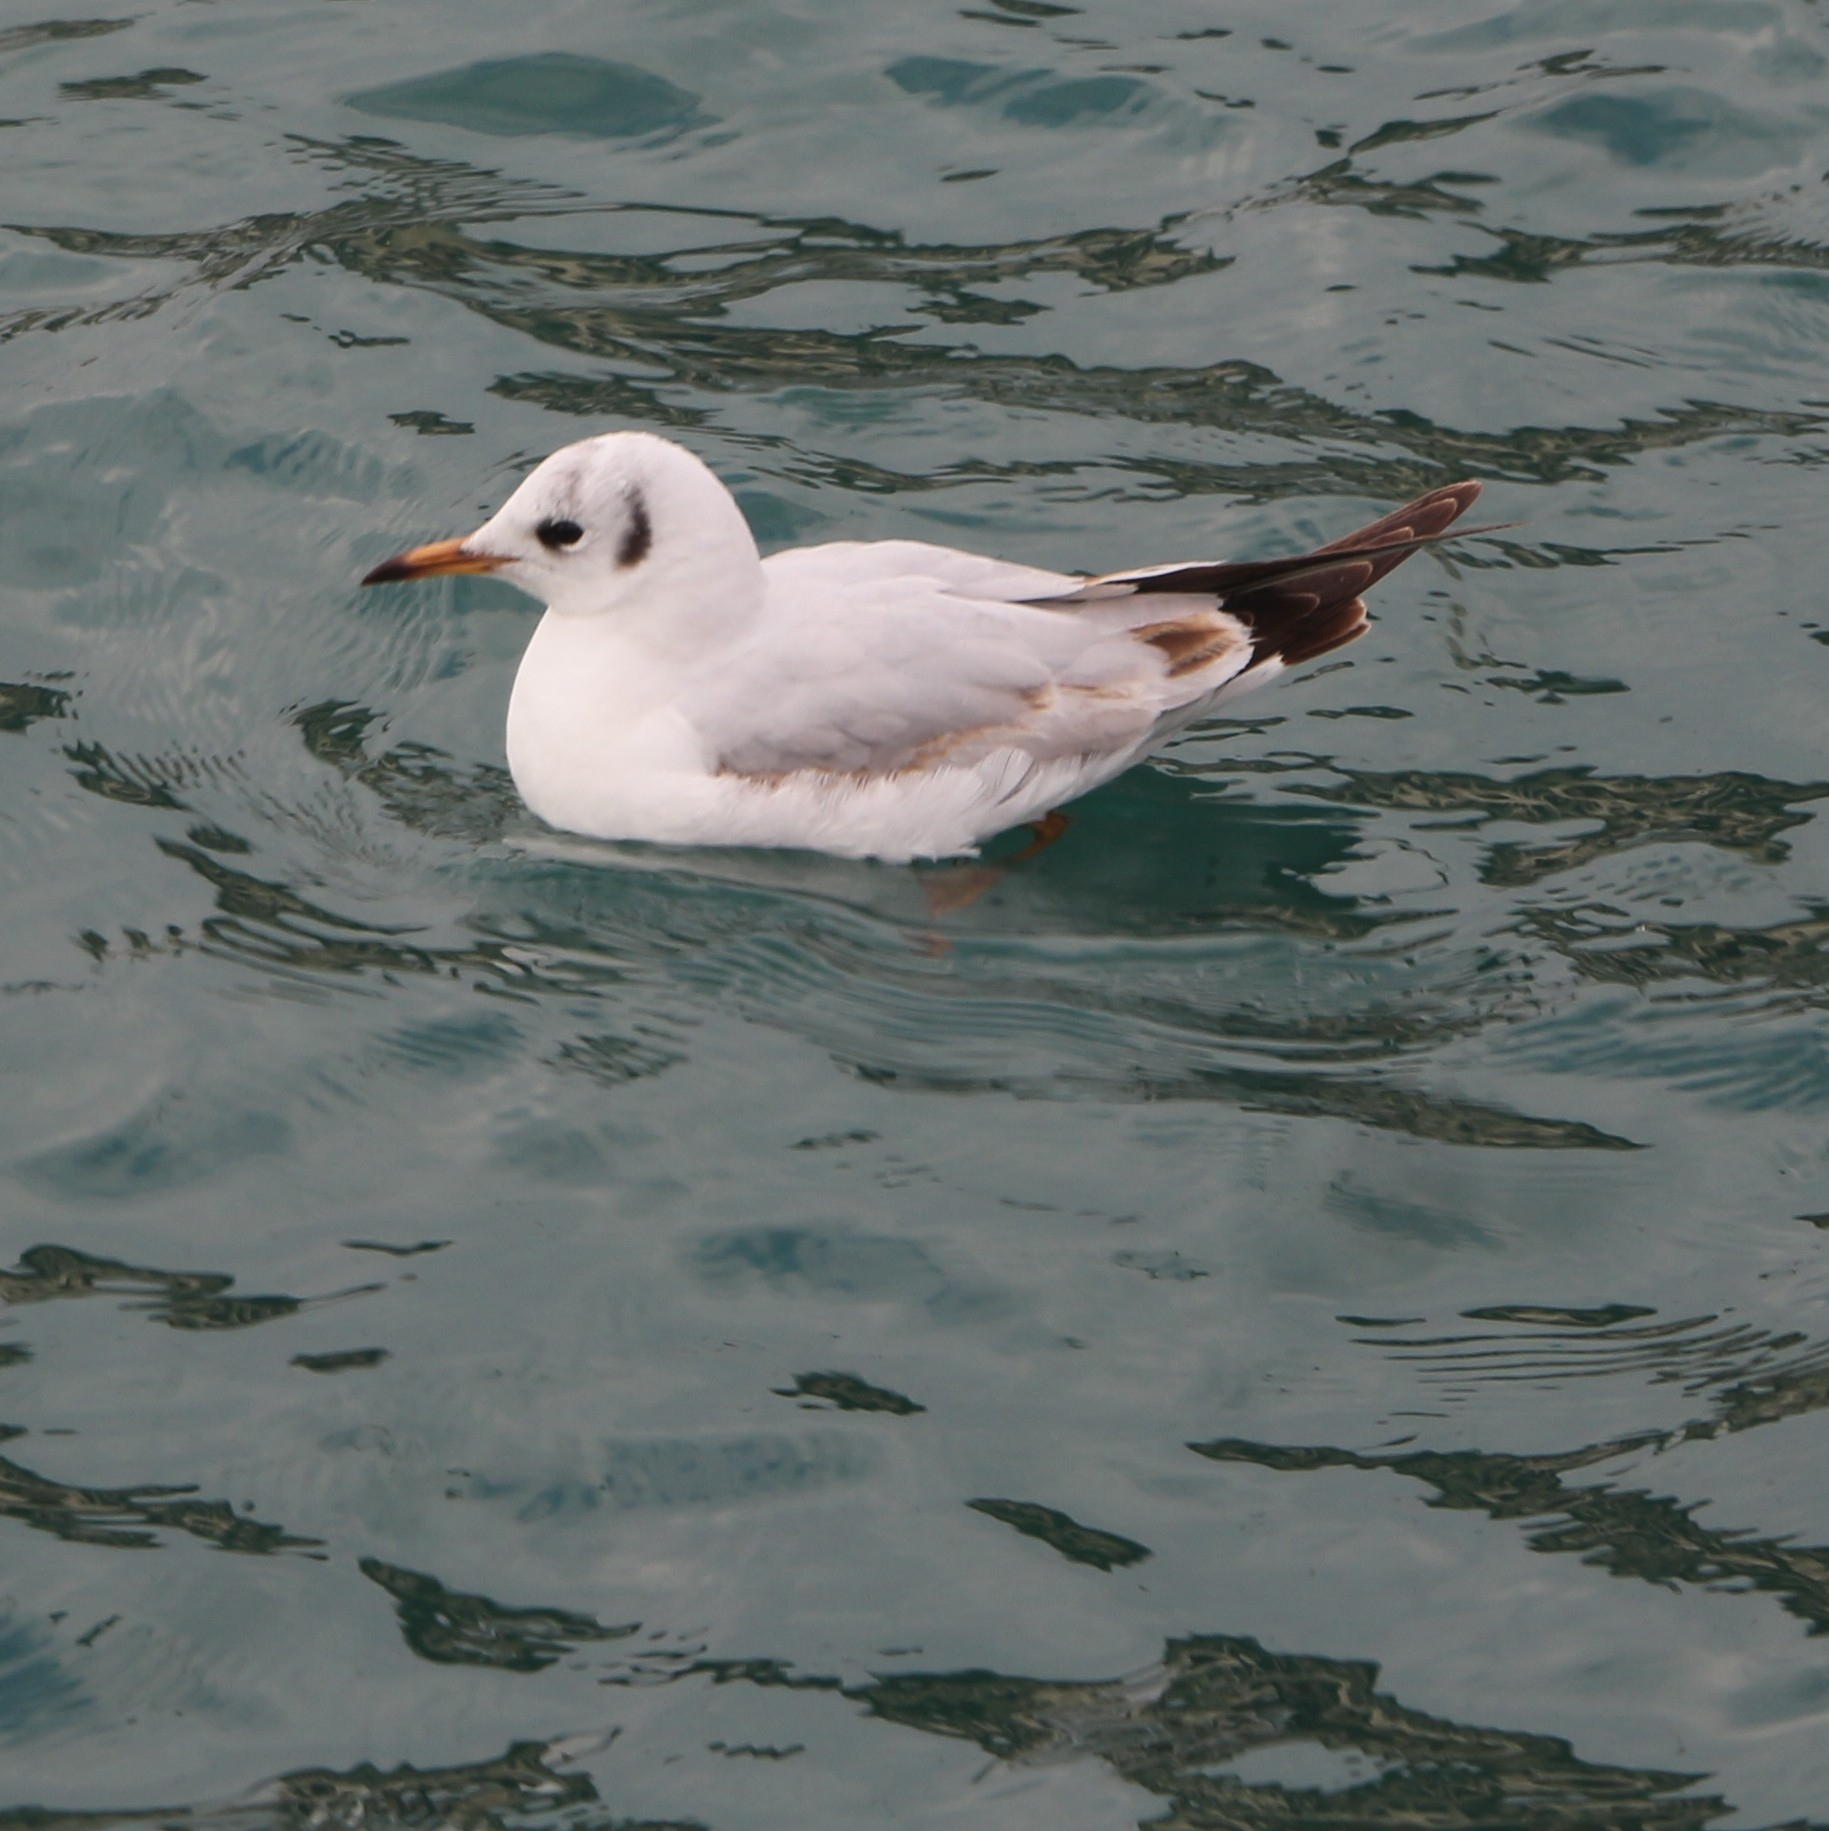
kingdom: Animalia
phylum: Chordata
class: Aves
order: Charadriiformes
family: Laridae
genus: Chroicocephalus
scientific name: Chroicocephalus ridibundus
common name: Black-headed gull
